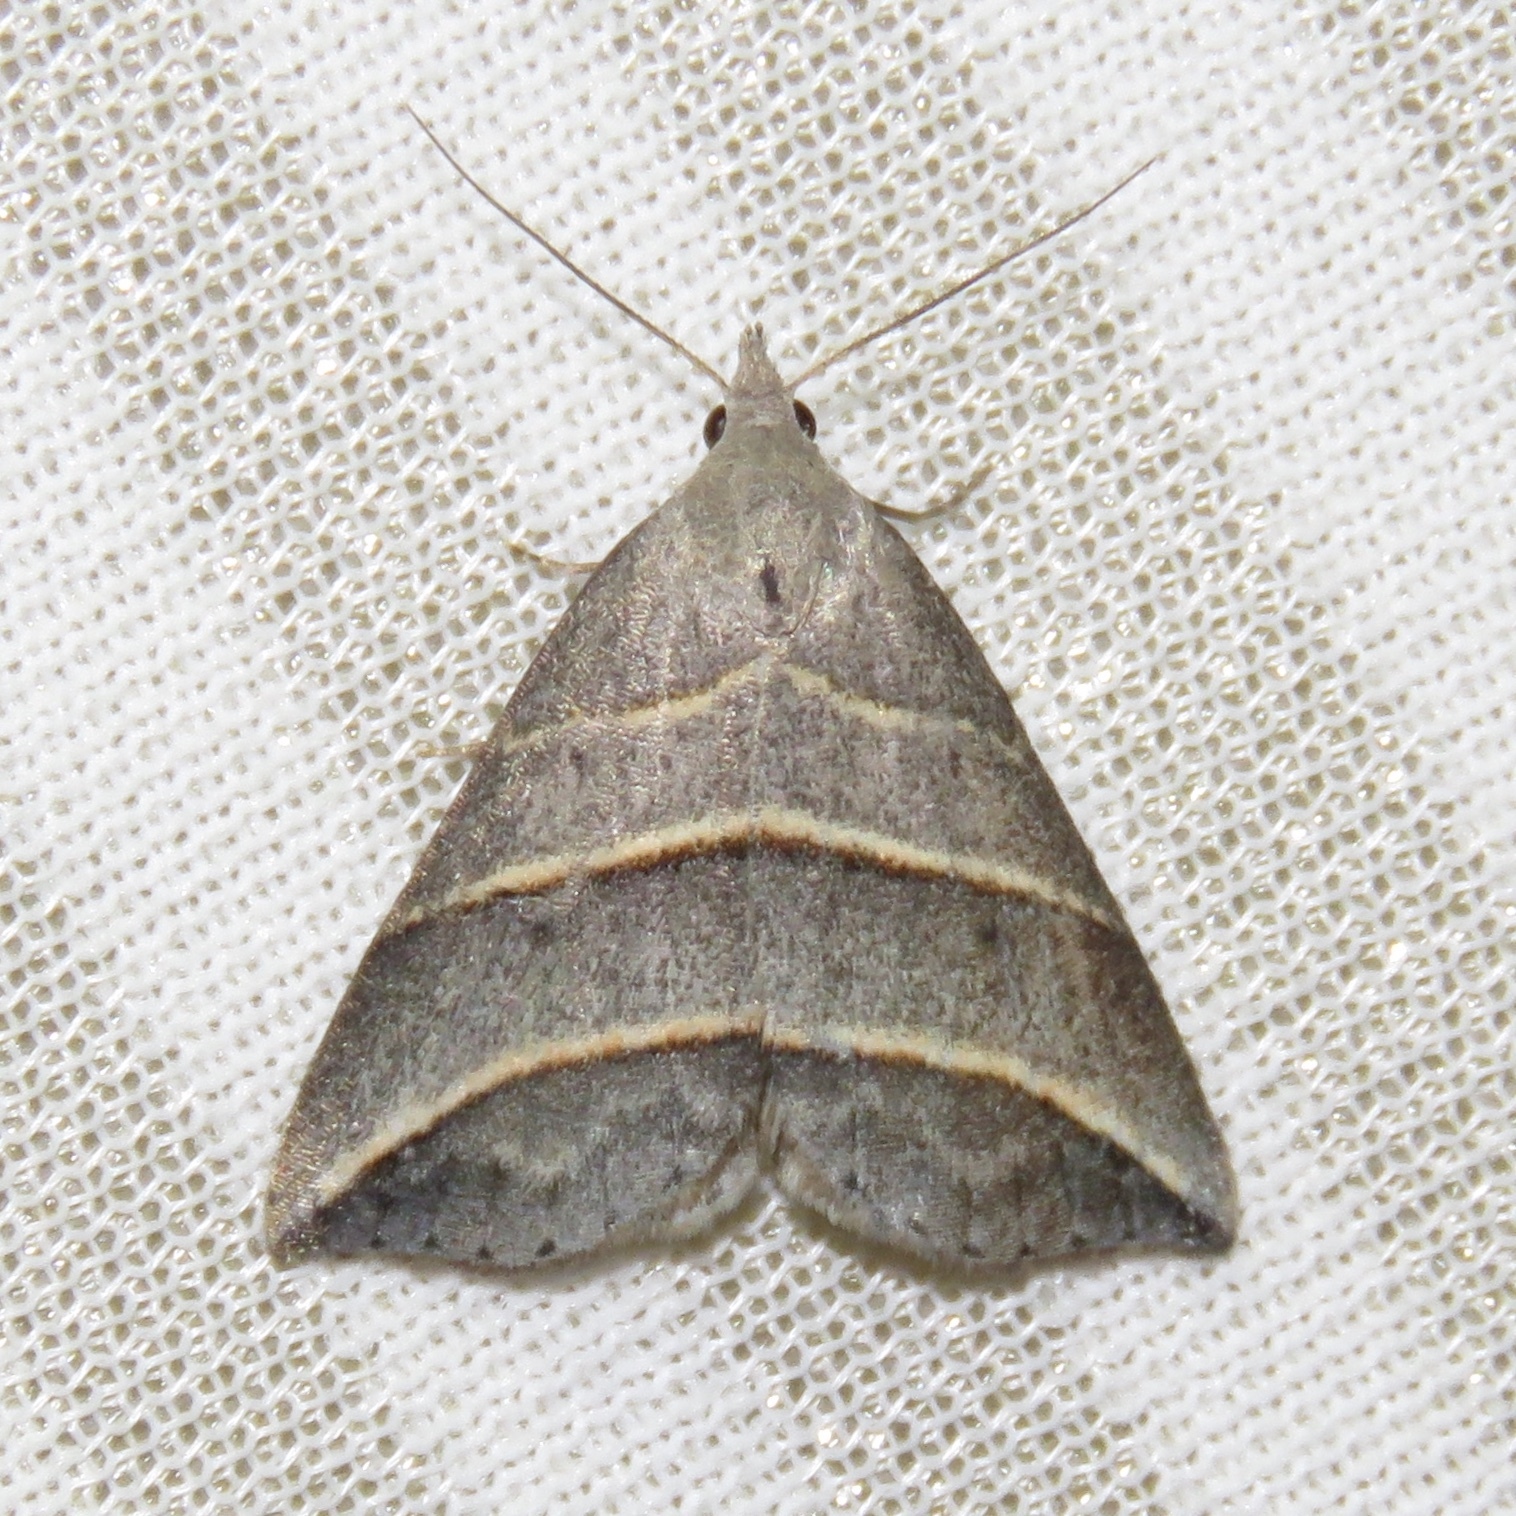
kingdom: Animalia
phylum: Arthropoda
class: Insecta
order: Lepidoptera
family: Erebidae
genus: Colobochyla
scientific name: Colobochyla interpuncta
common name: Yellow-lined owlet
